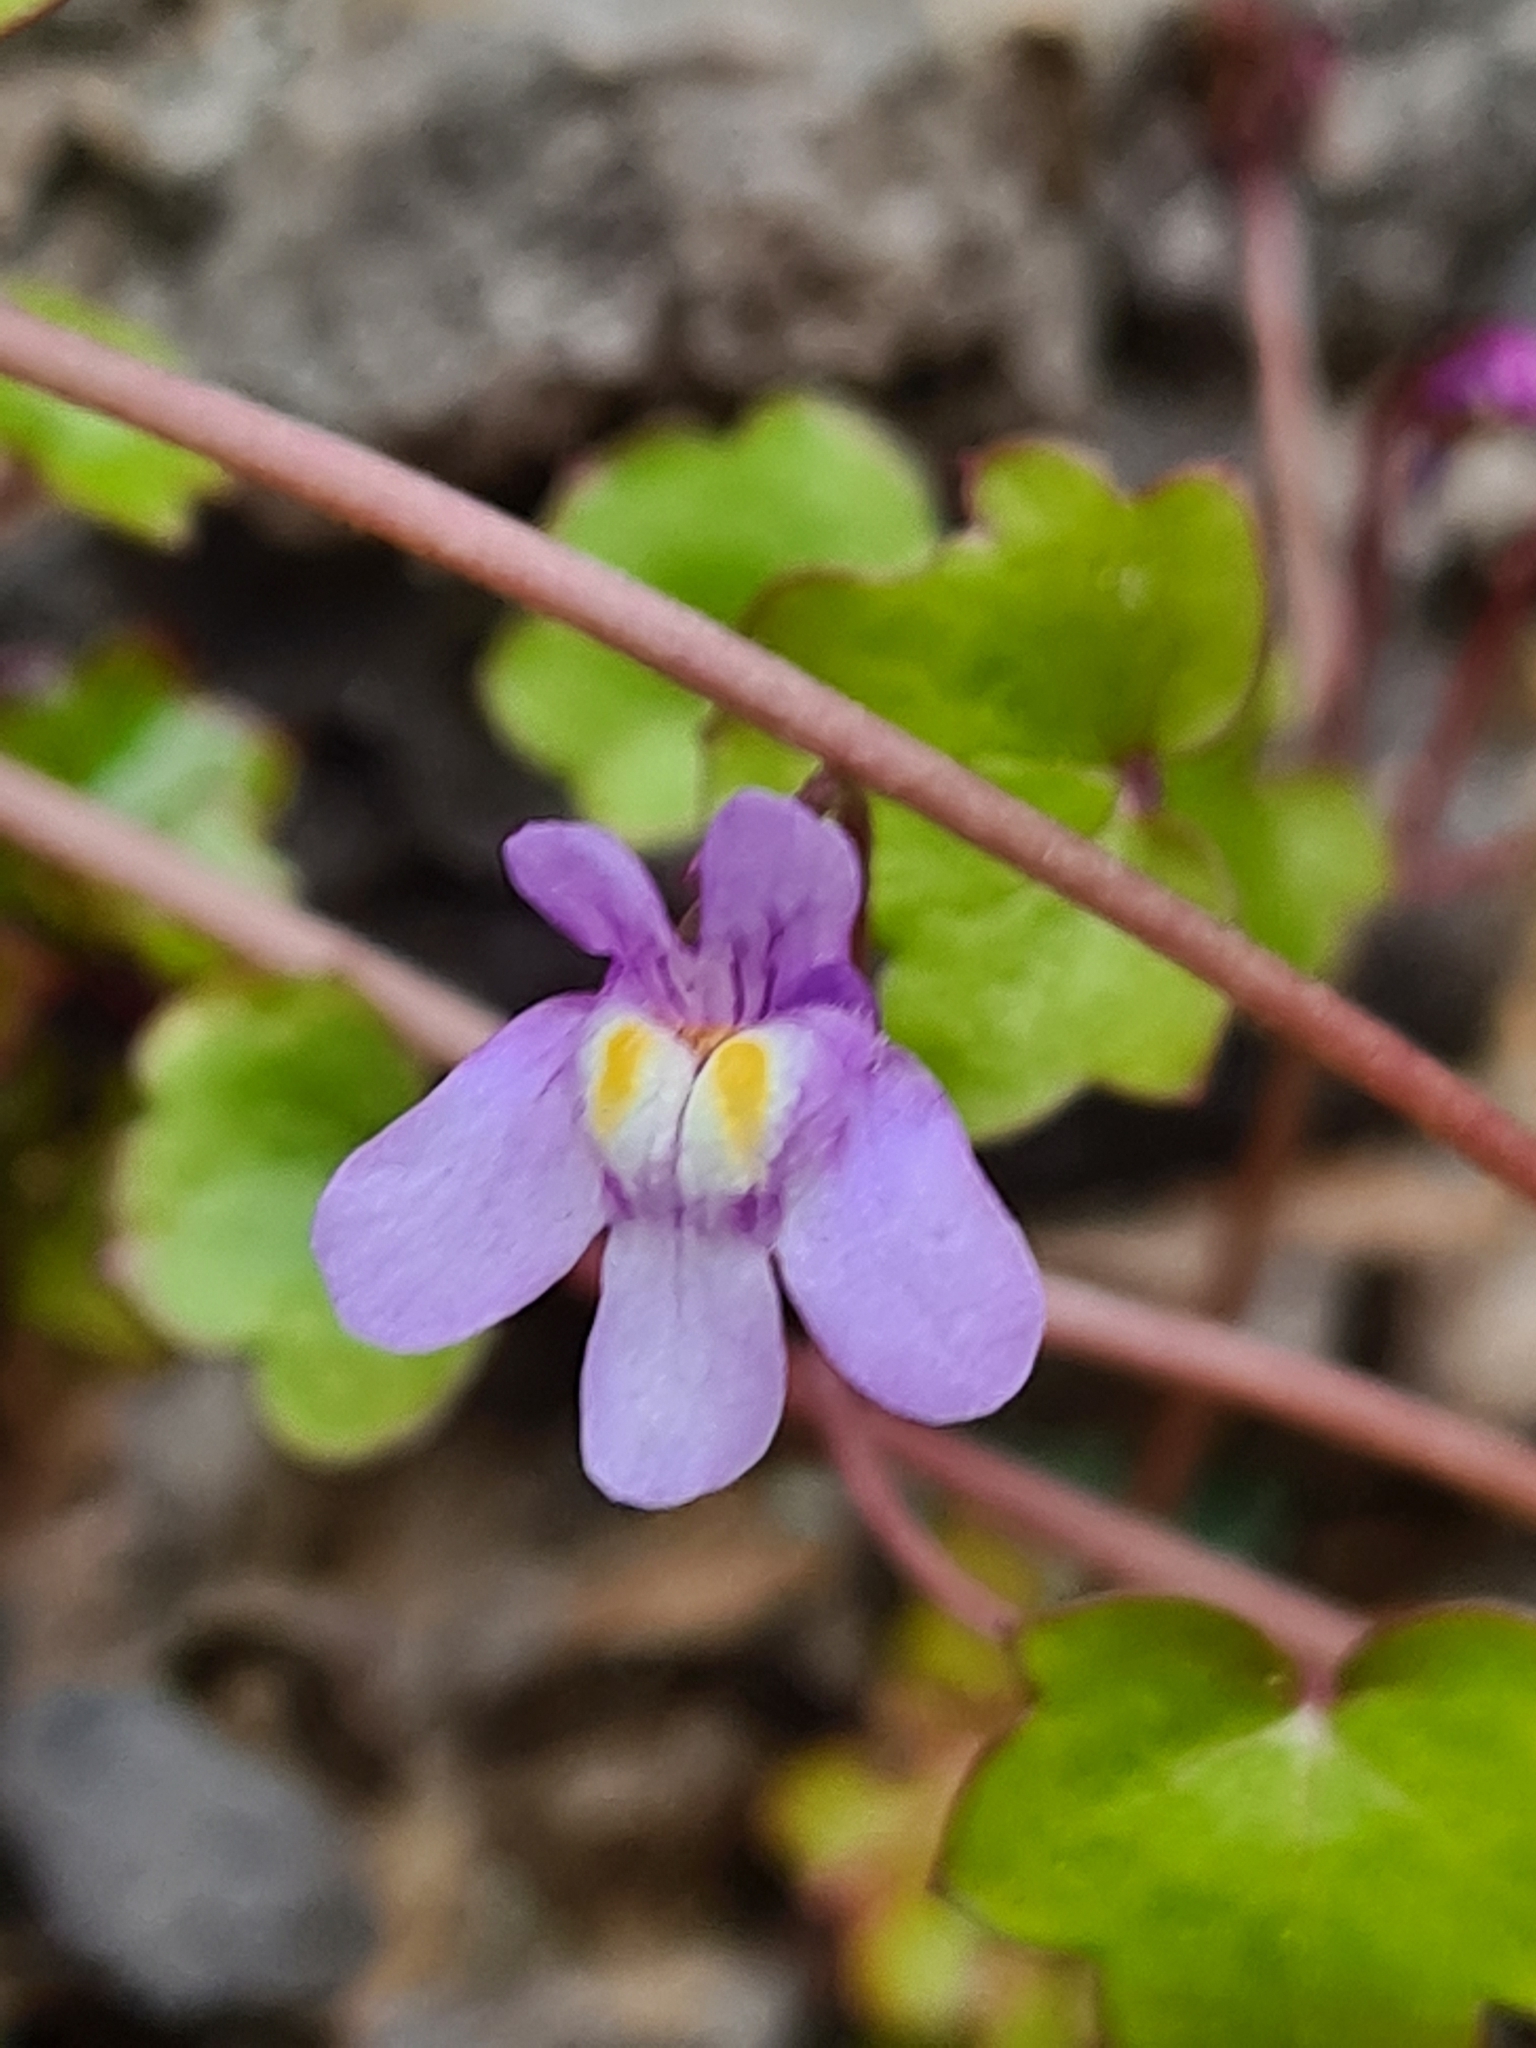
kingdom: Plantae
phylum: Tracheophyta
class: Magnoliopsida
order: Lamiales
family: Plantaginaceae
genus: Cymbalaria
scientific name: Cymbalaria muralis
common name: Ivy-leaved toadflax
